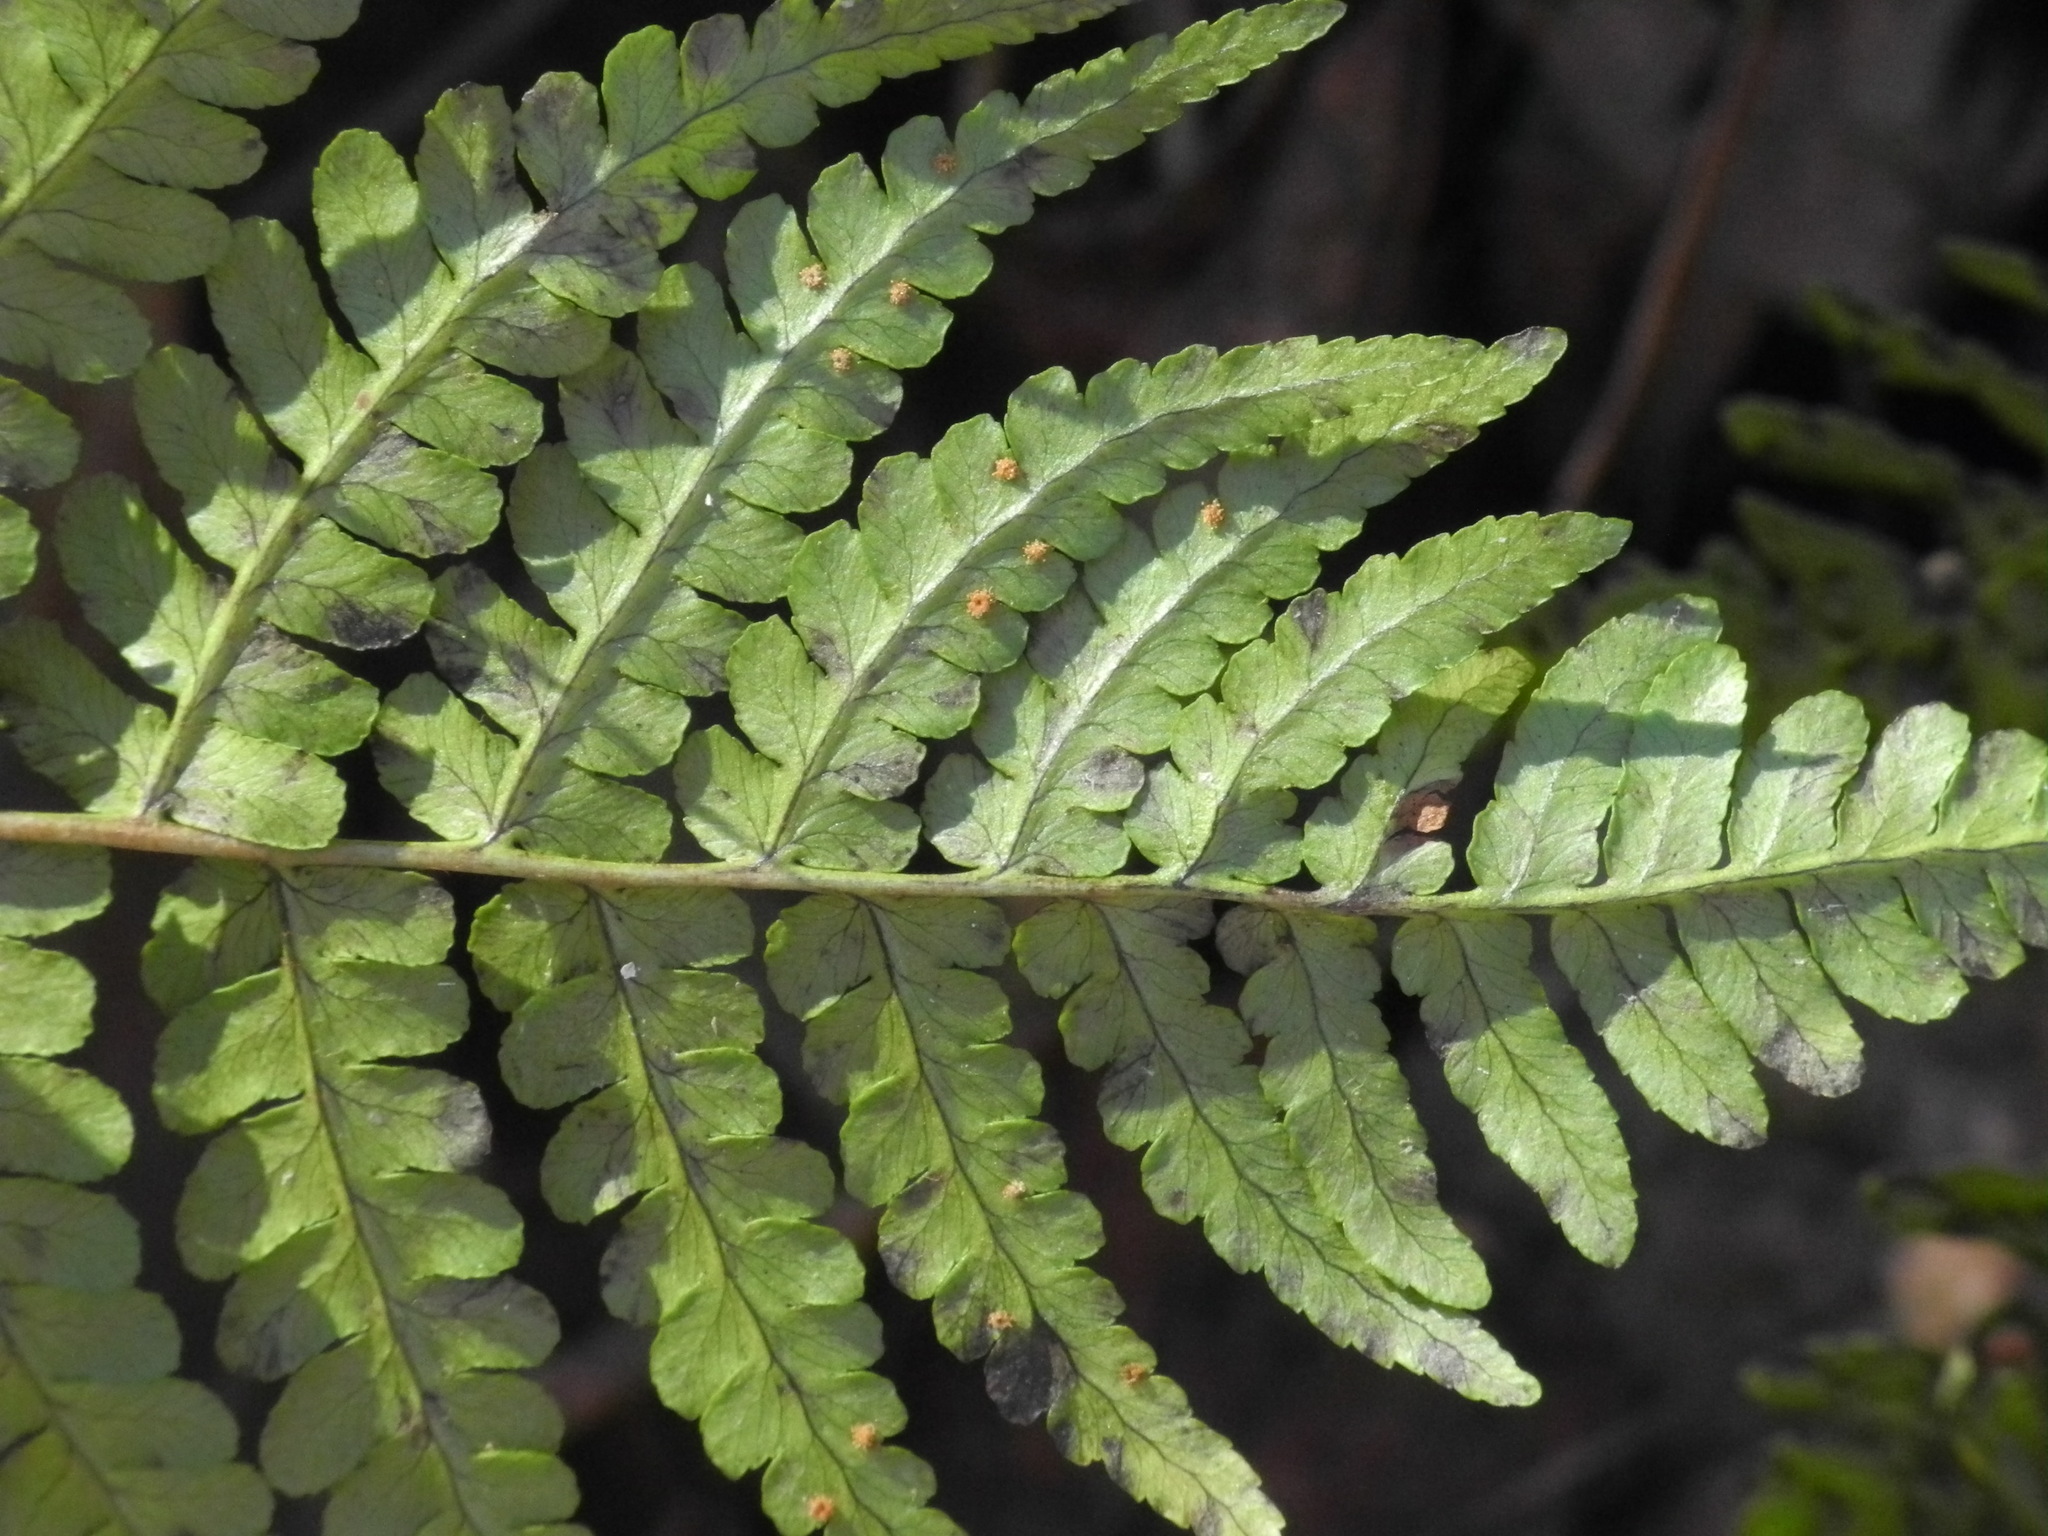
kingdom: Plantae
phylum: Tracheophyta
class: Polypodiopsida
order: Polypodiales
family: Dryopteridaceae
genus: Dryopteris
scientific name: Dryopteris marginalis
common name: Marginal wood fern
